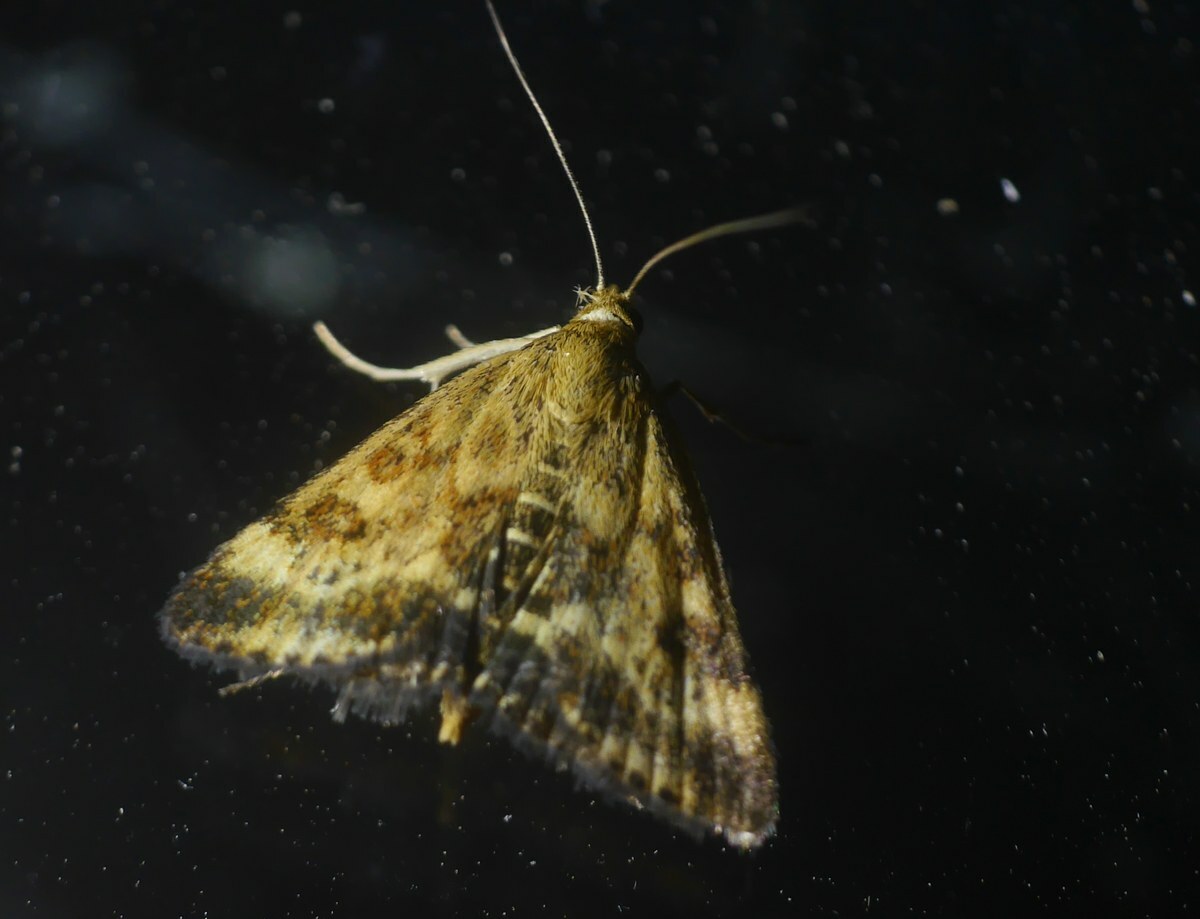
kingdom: Animalia
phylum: Arthropoda
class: Insecta
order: Lepidoptera
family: Crambidae
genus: Pyrausta
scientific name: Pyrausta despicata
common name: Straw-barred pearl
